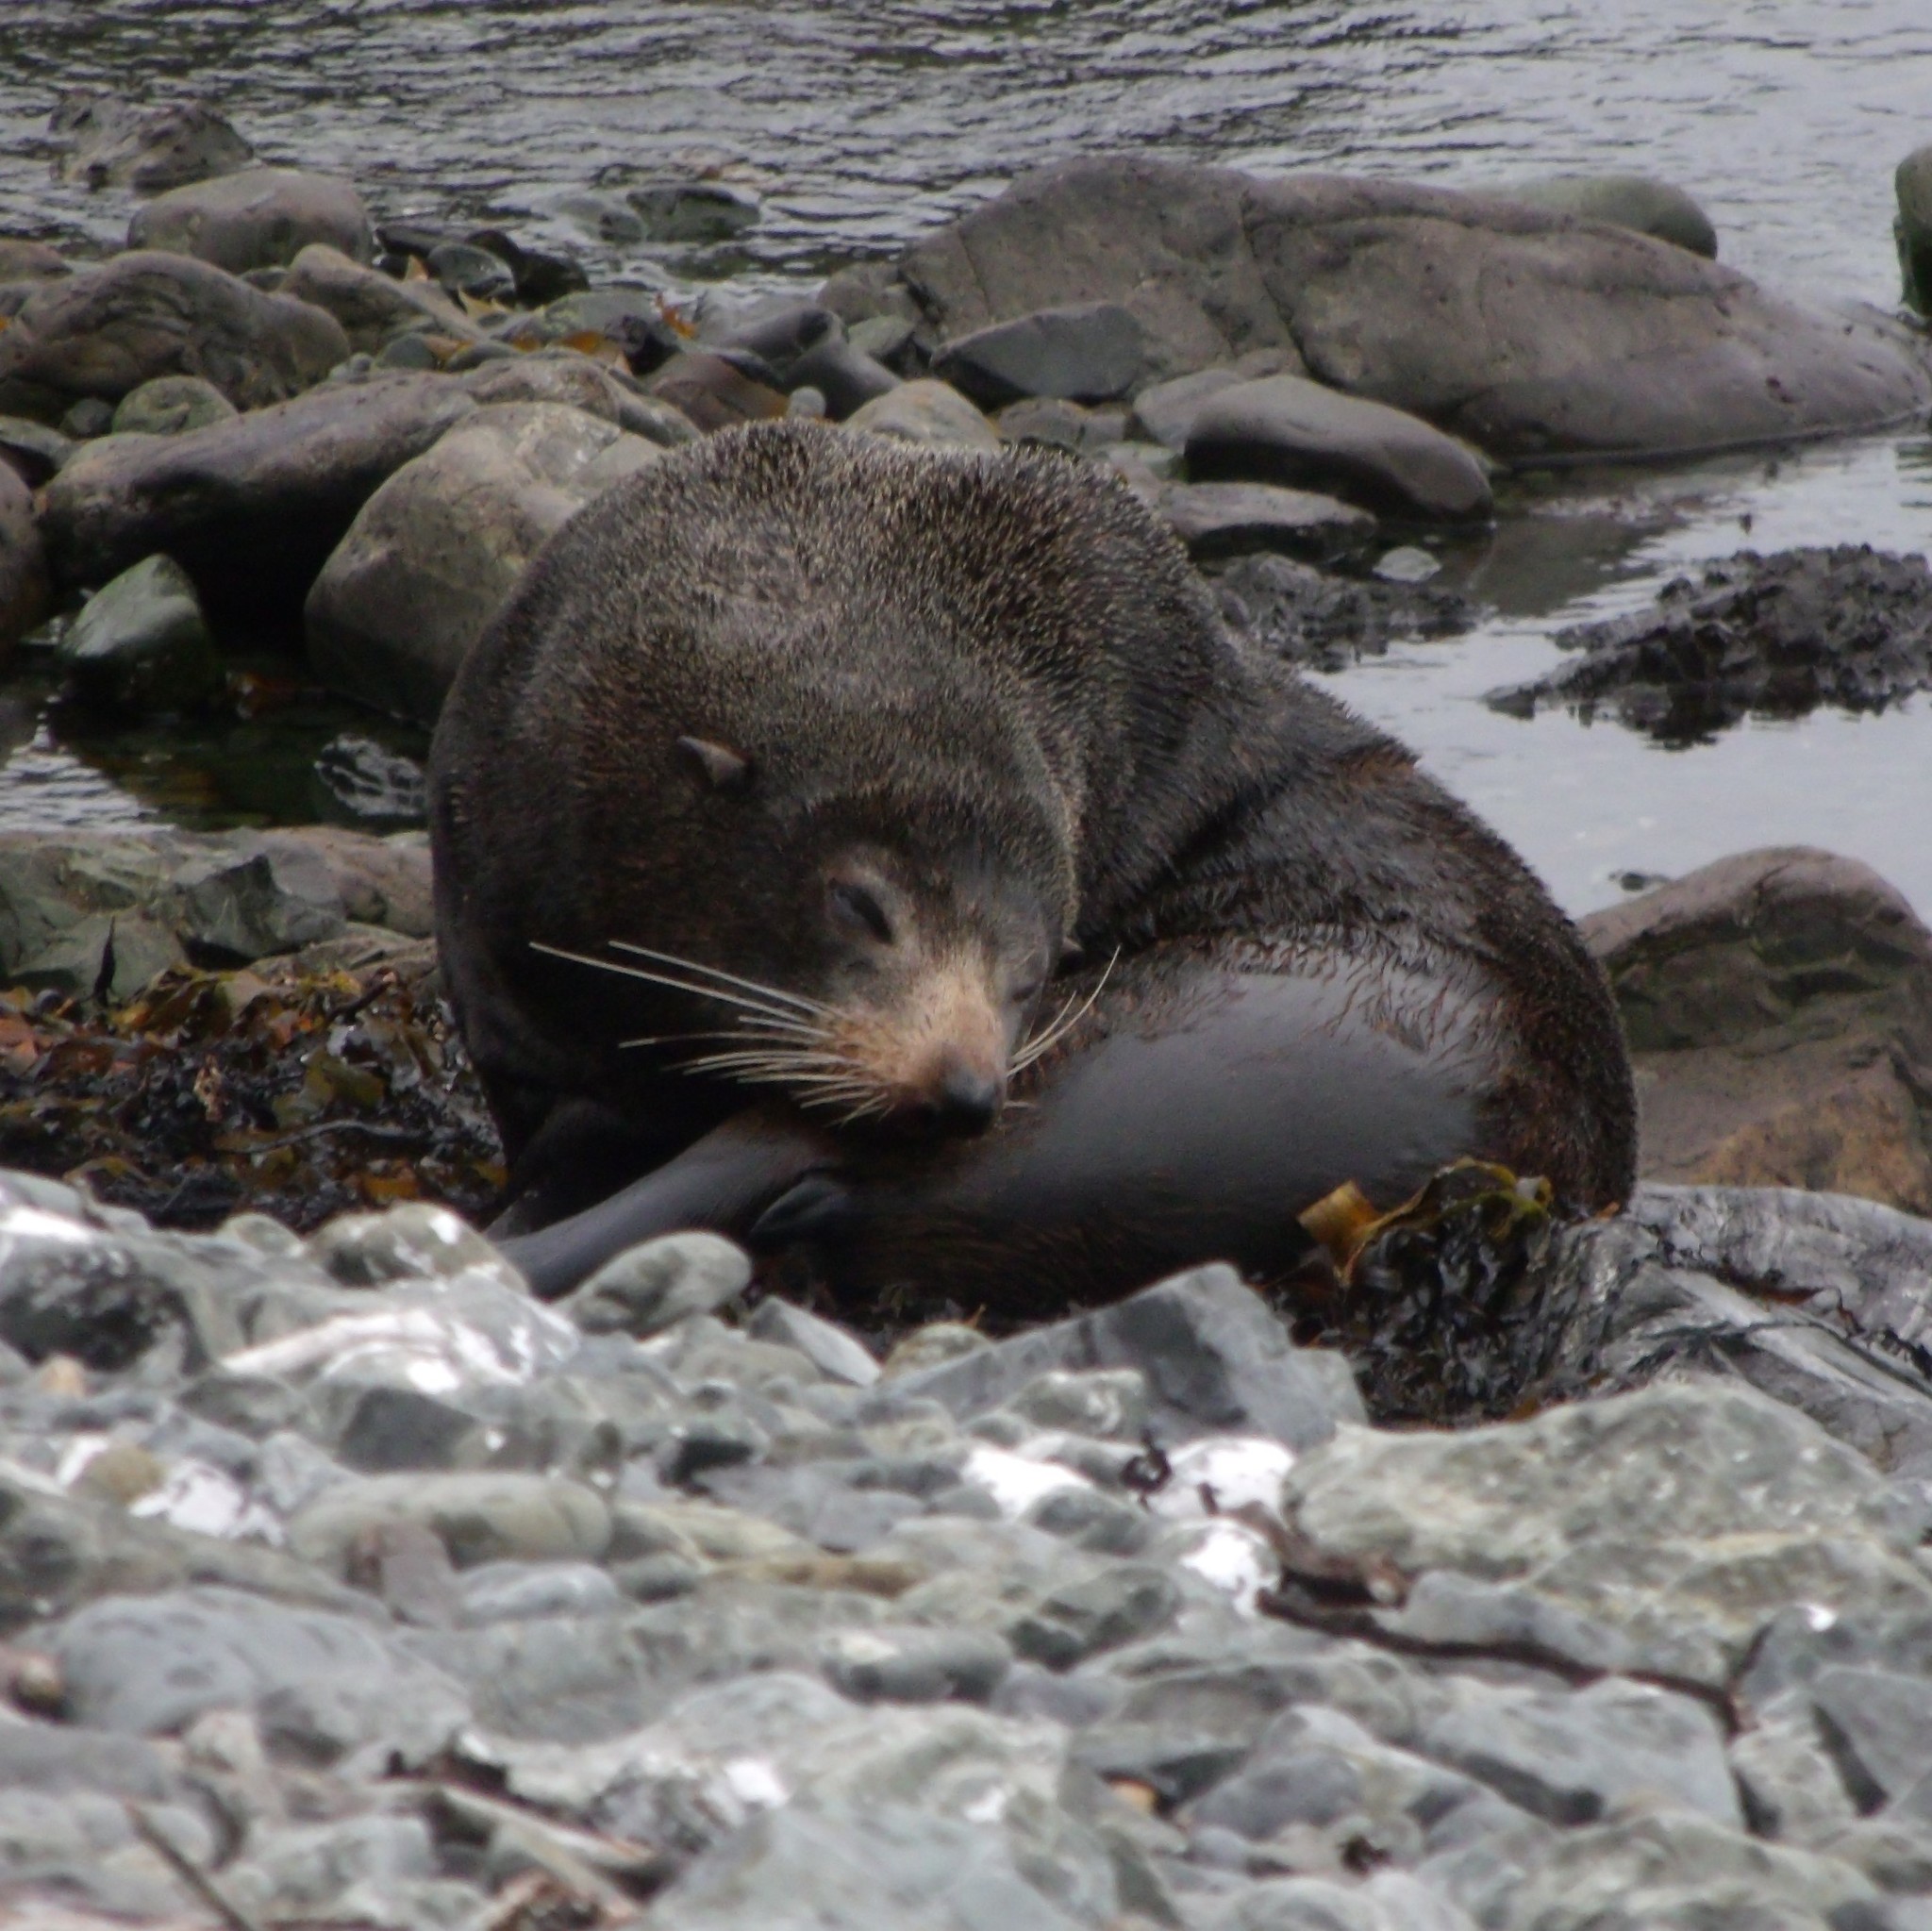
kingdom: Animalia
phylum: Chordata
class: Mammalia
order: Carnivora
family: Otariidae
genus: Arctocephalus
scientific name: Arctocephalus forsteri
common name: New zealand fur seal
